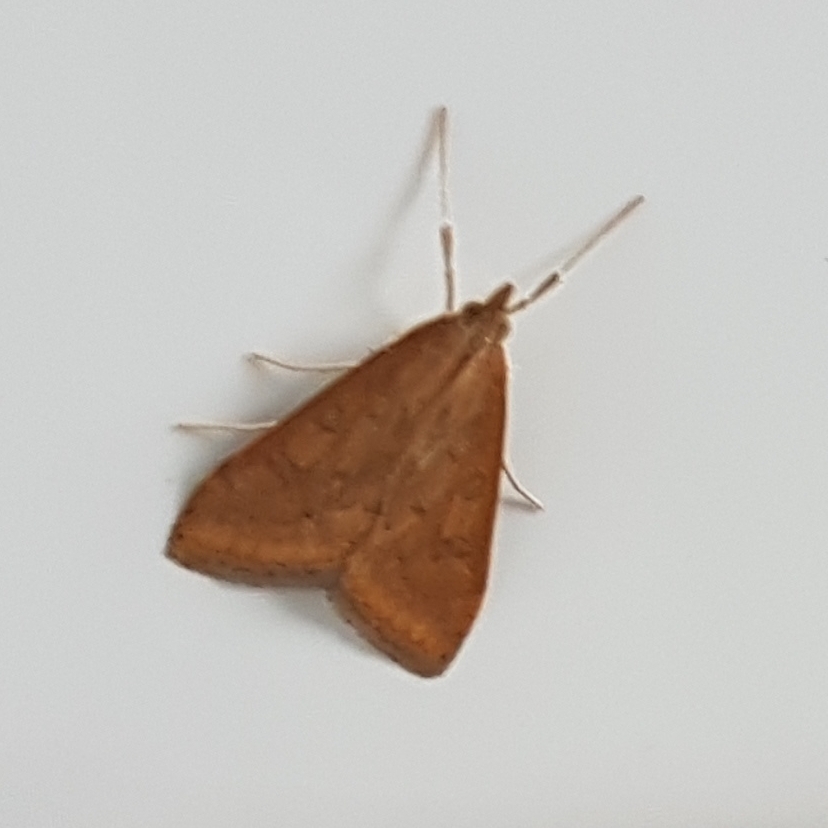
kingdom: Animalia
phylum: Arthropoda
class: Insecta
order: Lepidoptera
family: Crambidae
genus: Udea
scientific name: Udea ferrugalis
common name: Rusty dot
